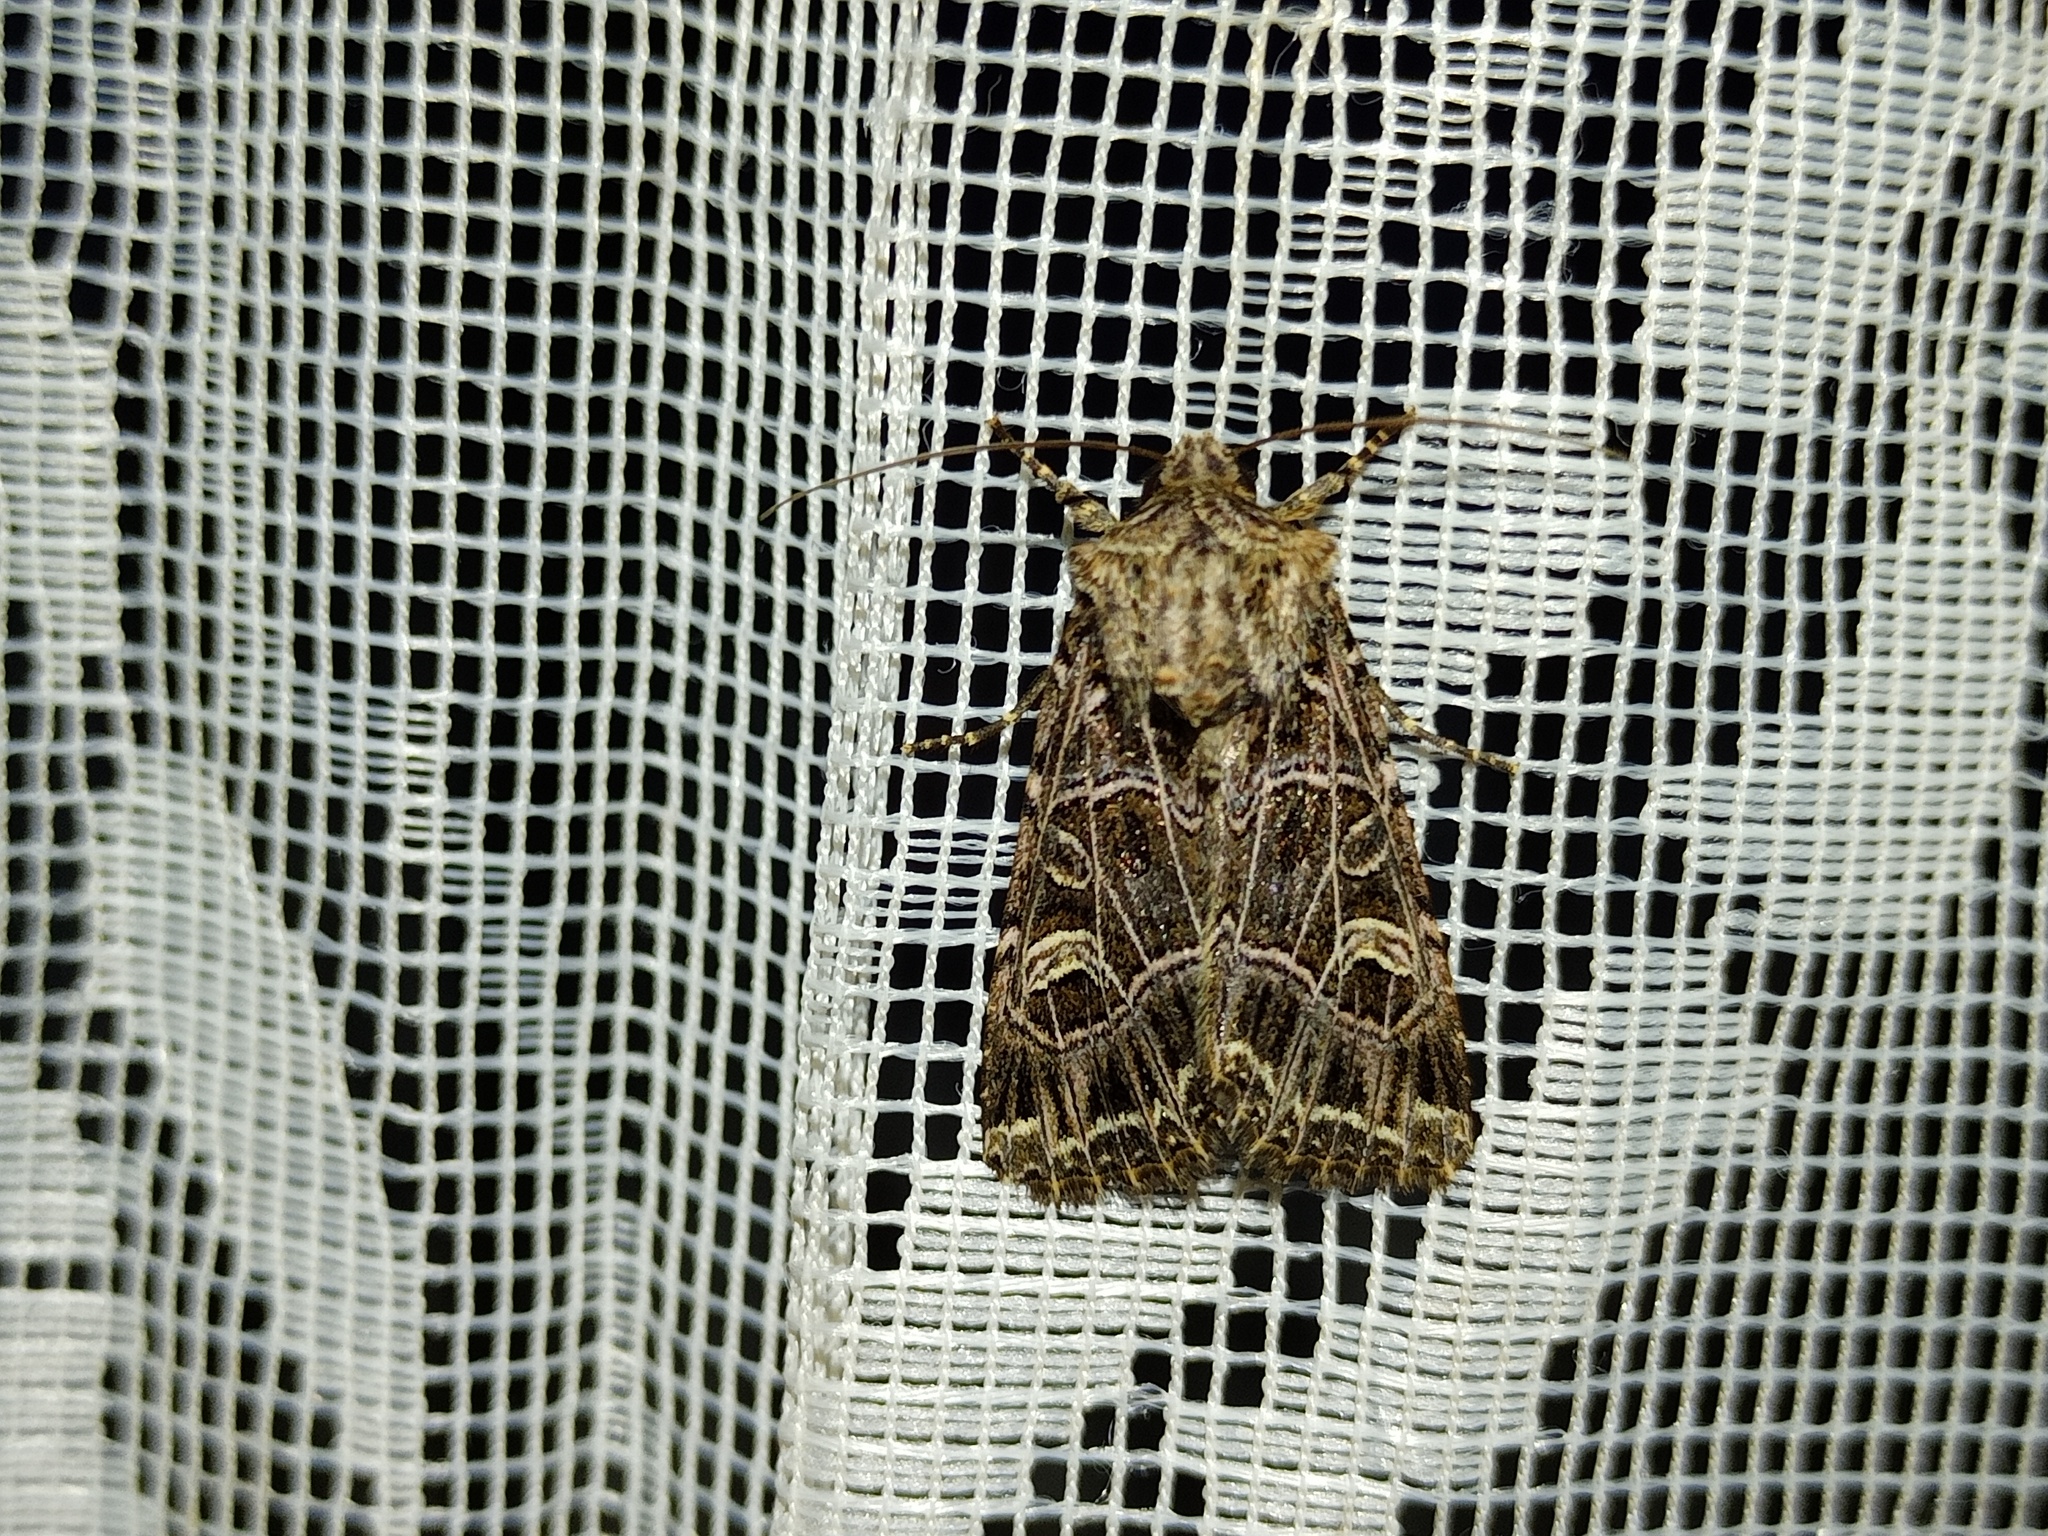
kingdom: Animalia
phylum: Arthropoda
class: Insecta
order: Lepidoptera
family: Noctuidae
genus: Sideridis
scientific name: Sideridis reticulata
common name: Bordered gothic
